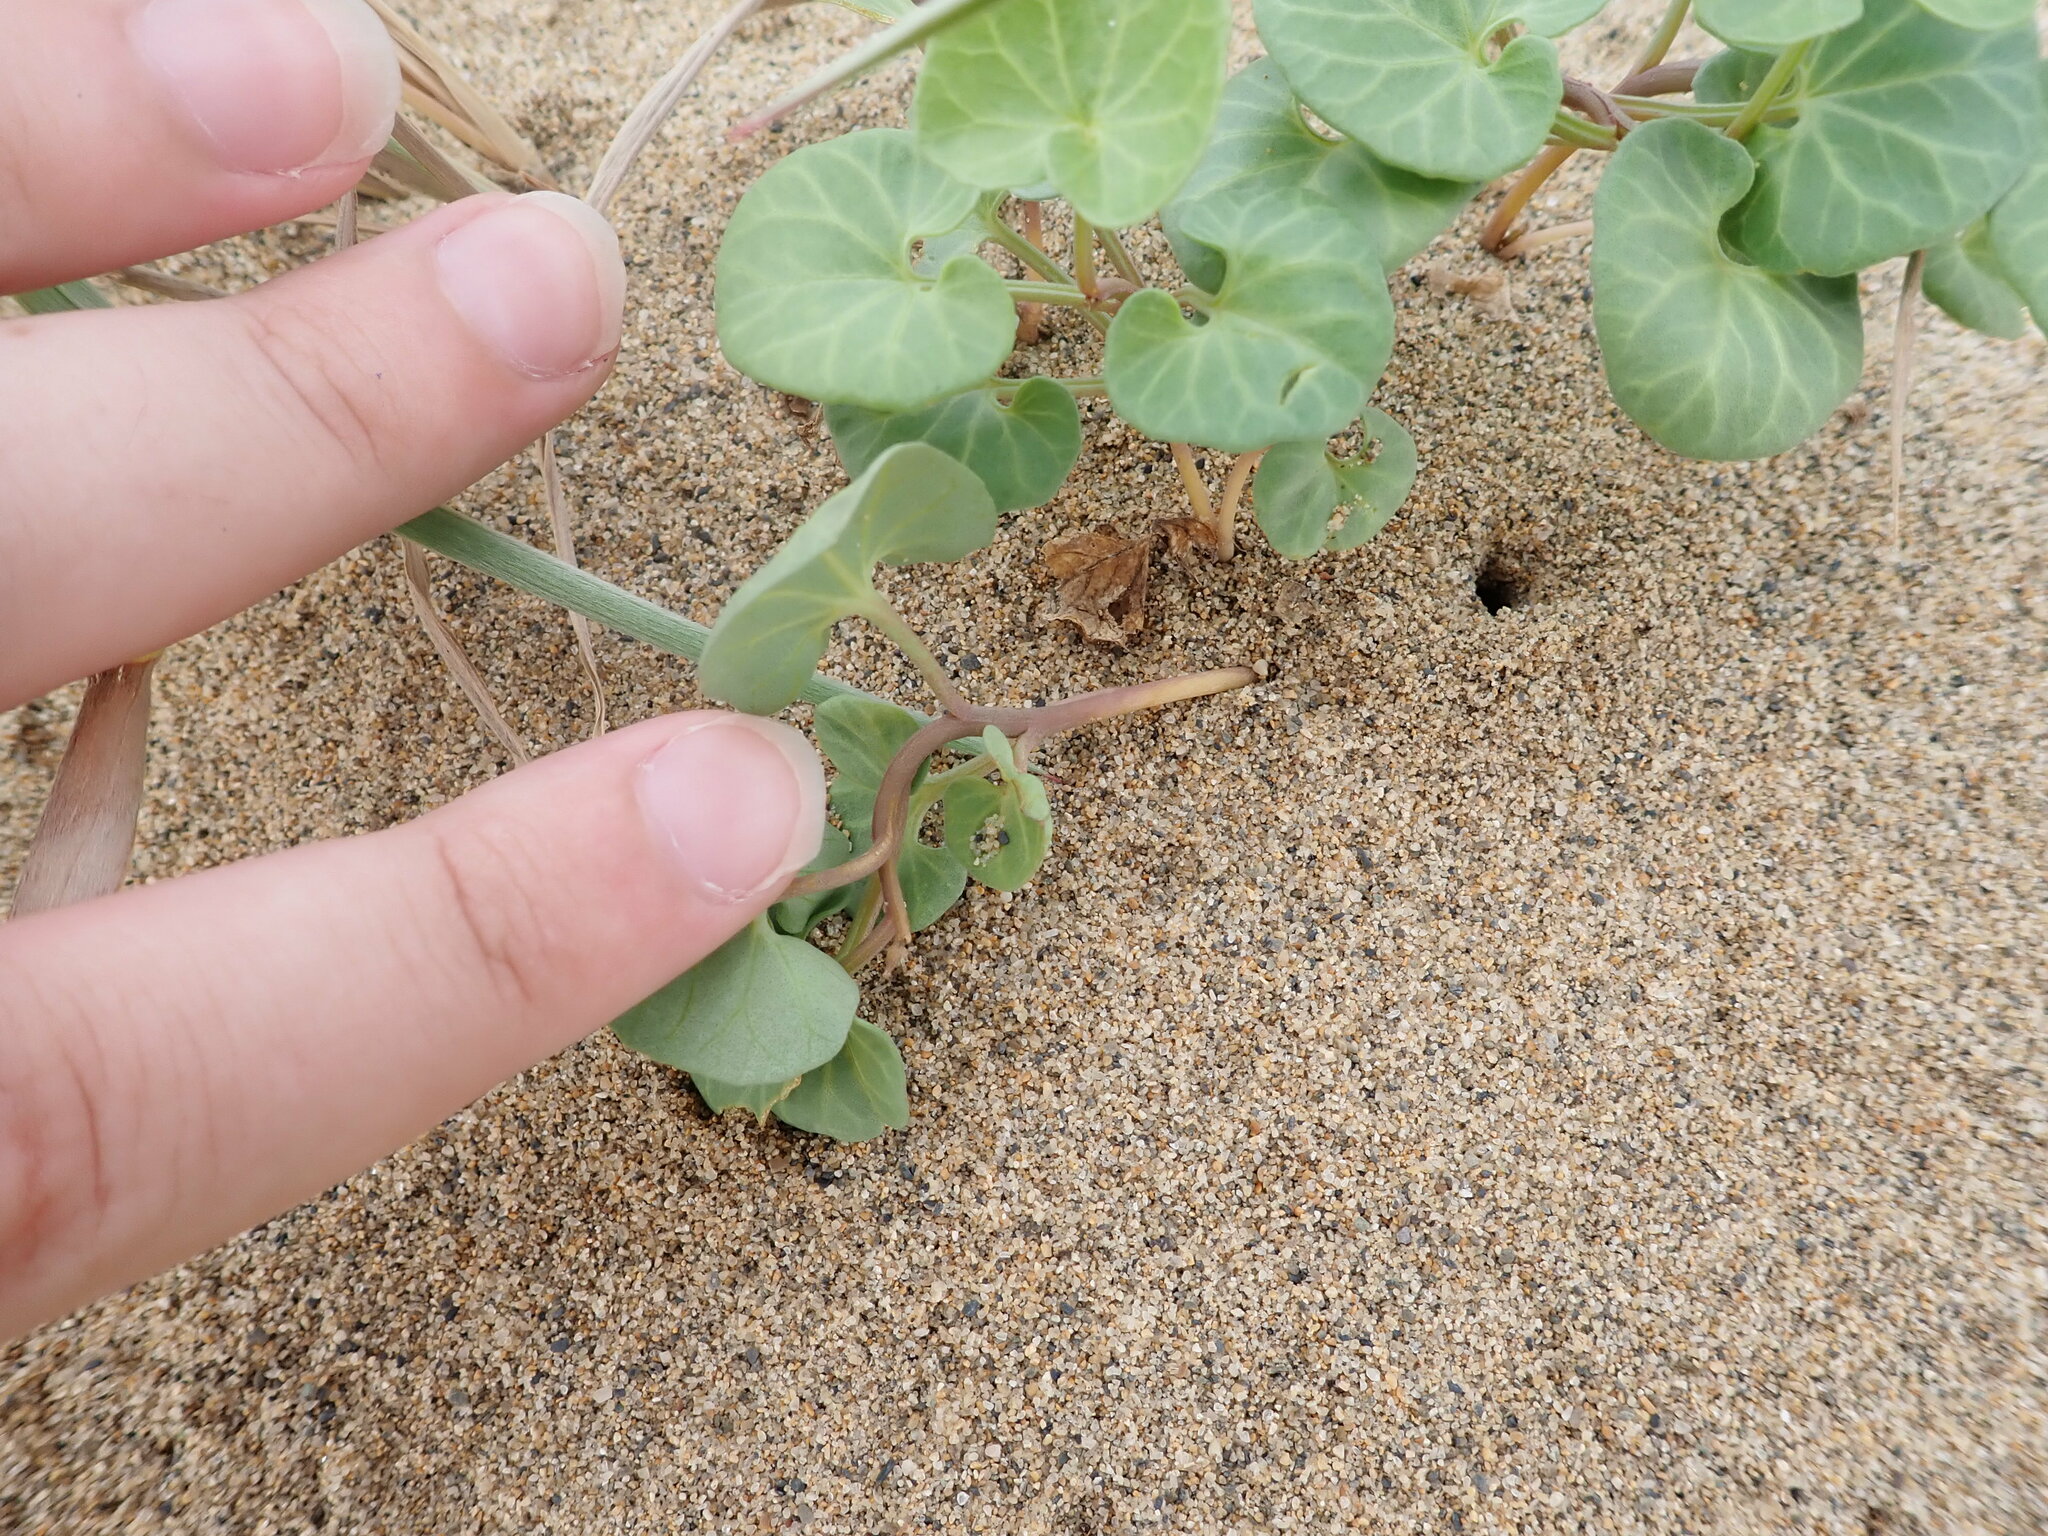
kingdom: Plantae
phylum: Tracheophyta
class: Magnoliopsida
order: Solanales
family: Convolvulaceae
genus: Calystegia
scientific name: Calystegia soldanella
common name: Sea bindweed
